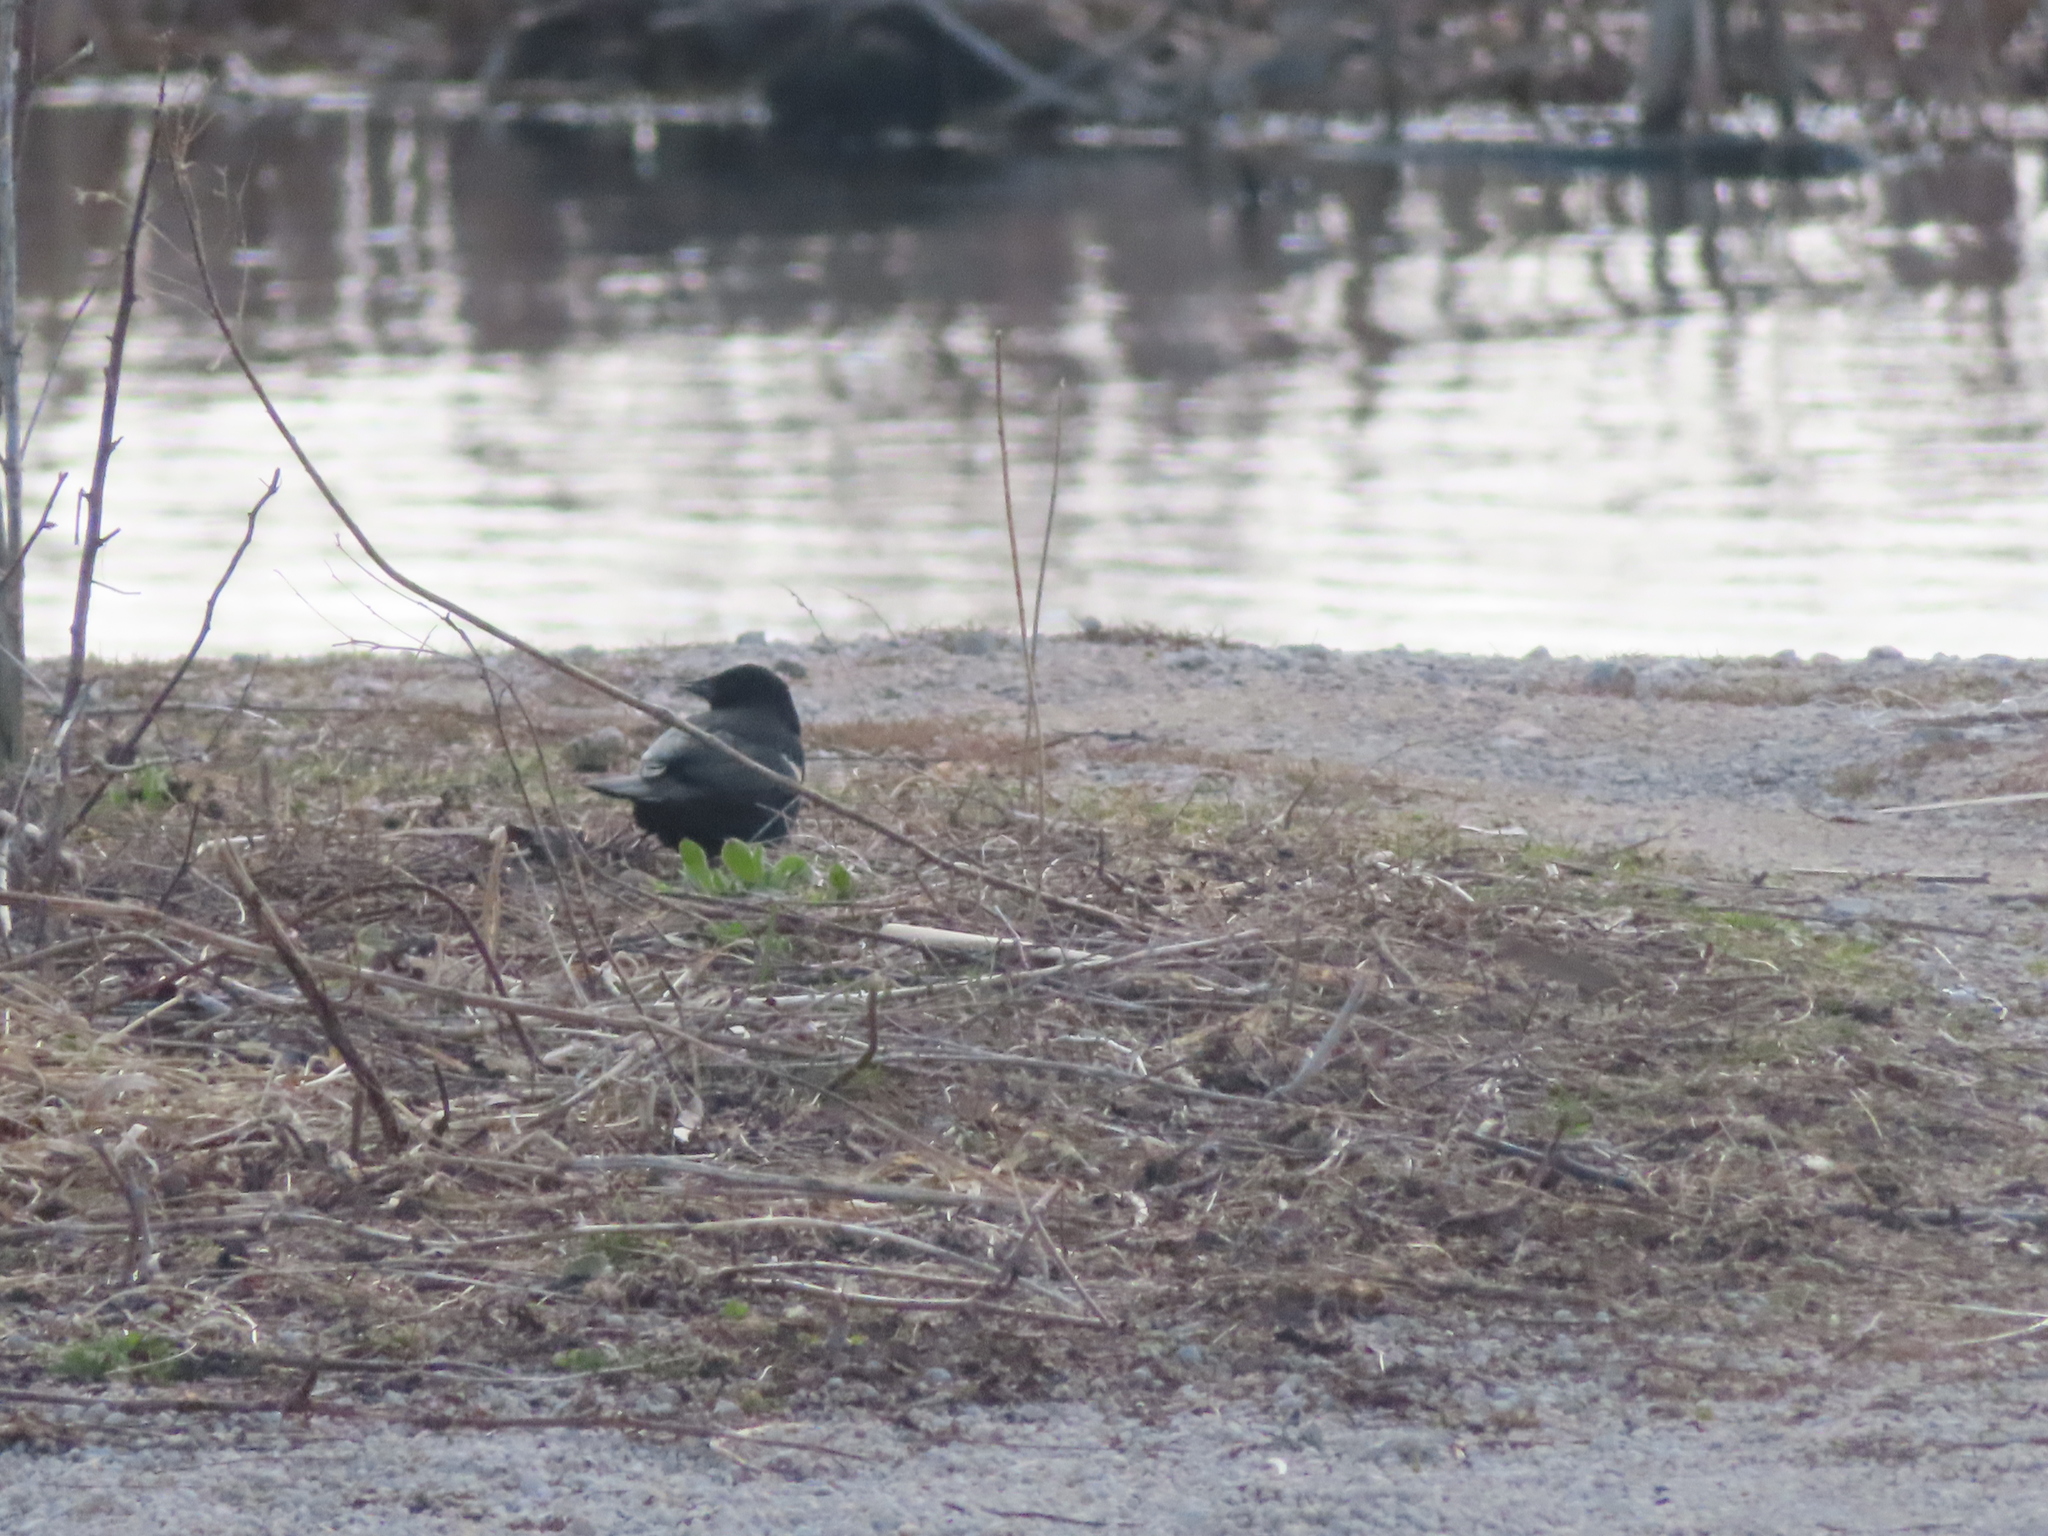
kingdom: Animalia
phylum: Chordata
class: Aves
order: Passeriformes
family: Icteridae
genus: Agelaius
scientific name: Agelaius phoeniceus
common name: Red-winged blackbird
